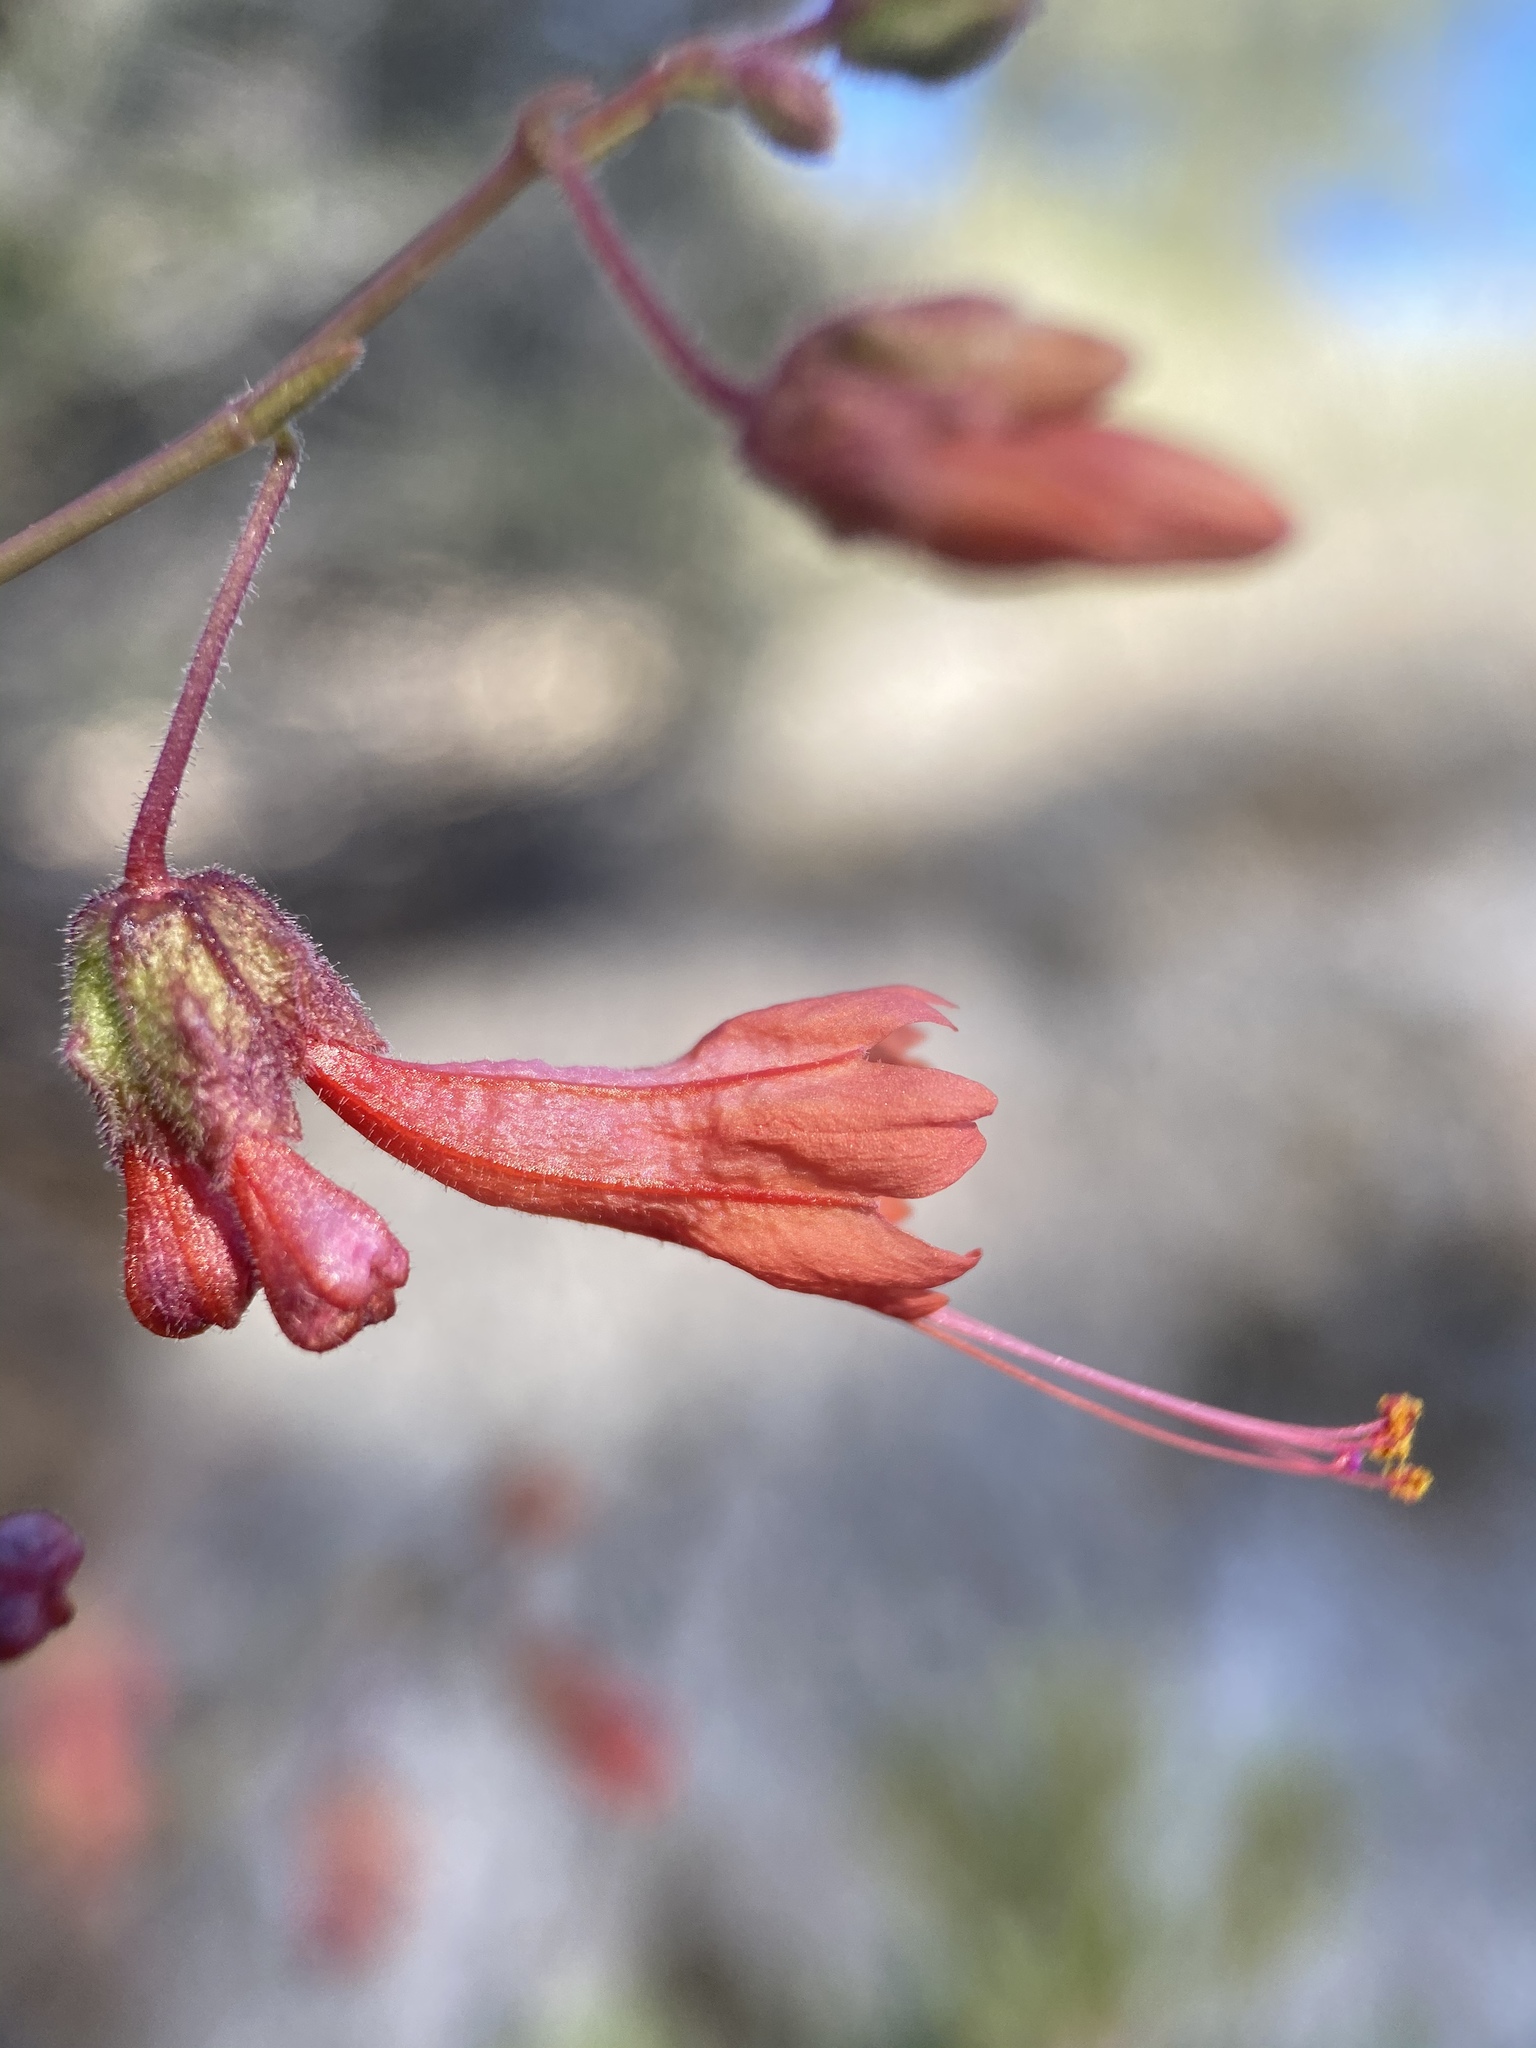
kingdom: Plantae
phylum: Tracheophyta
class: Magnoliopsida
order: Caryophyllales
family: Nyctaginaceae
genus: Mirabilis
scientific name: Mirabilis coccinea
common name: Scarlet four-o'clock
